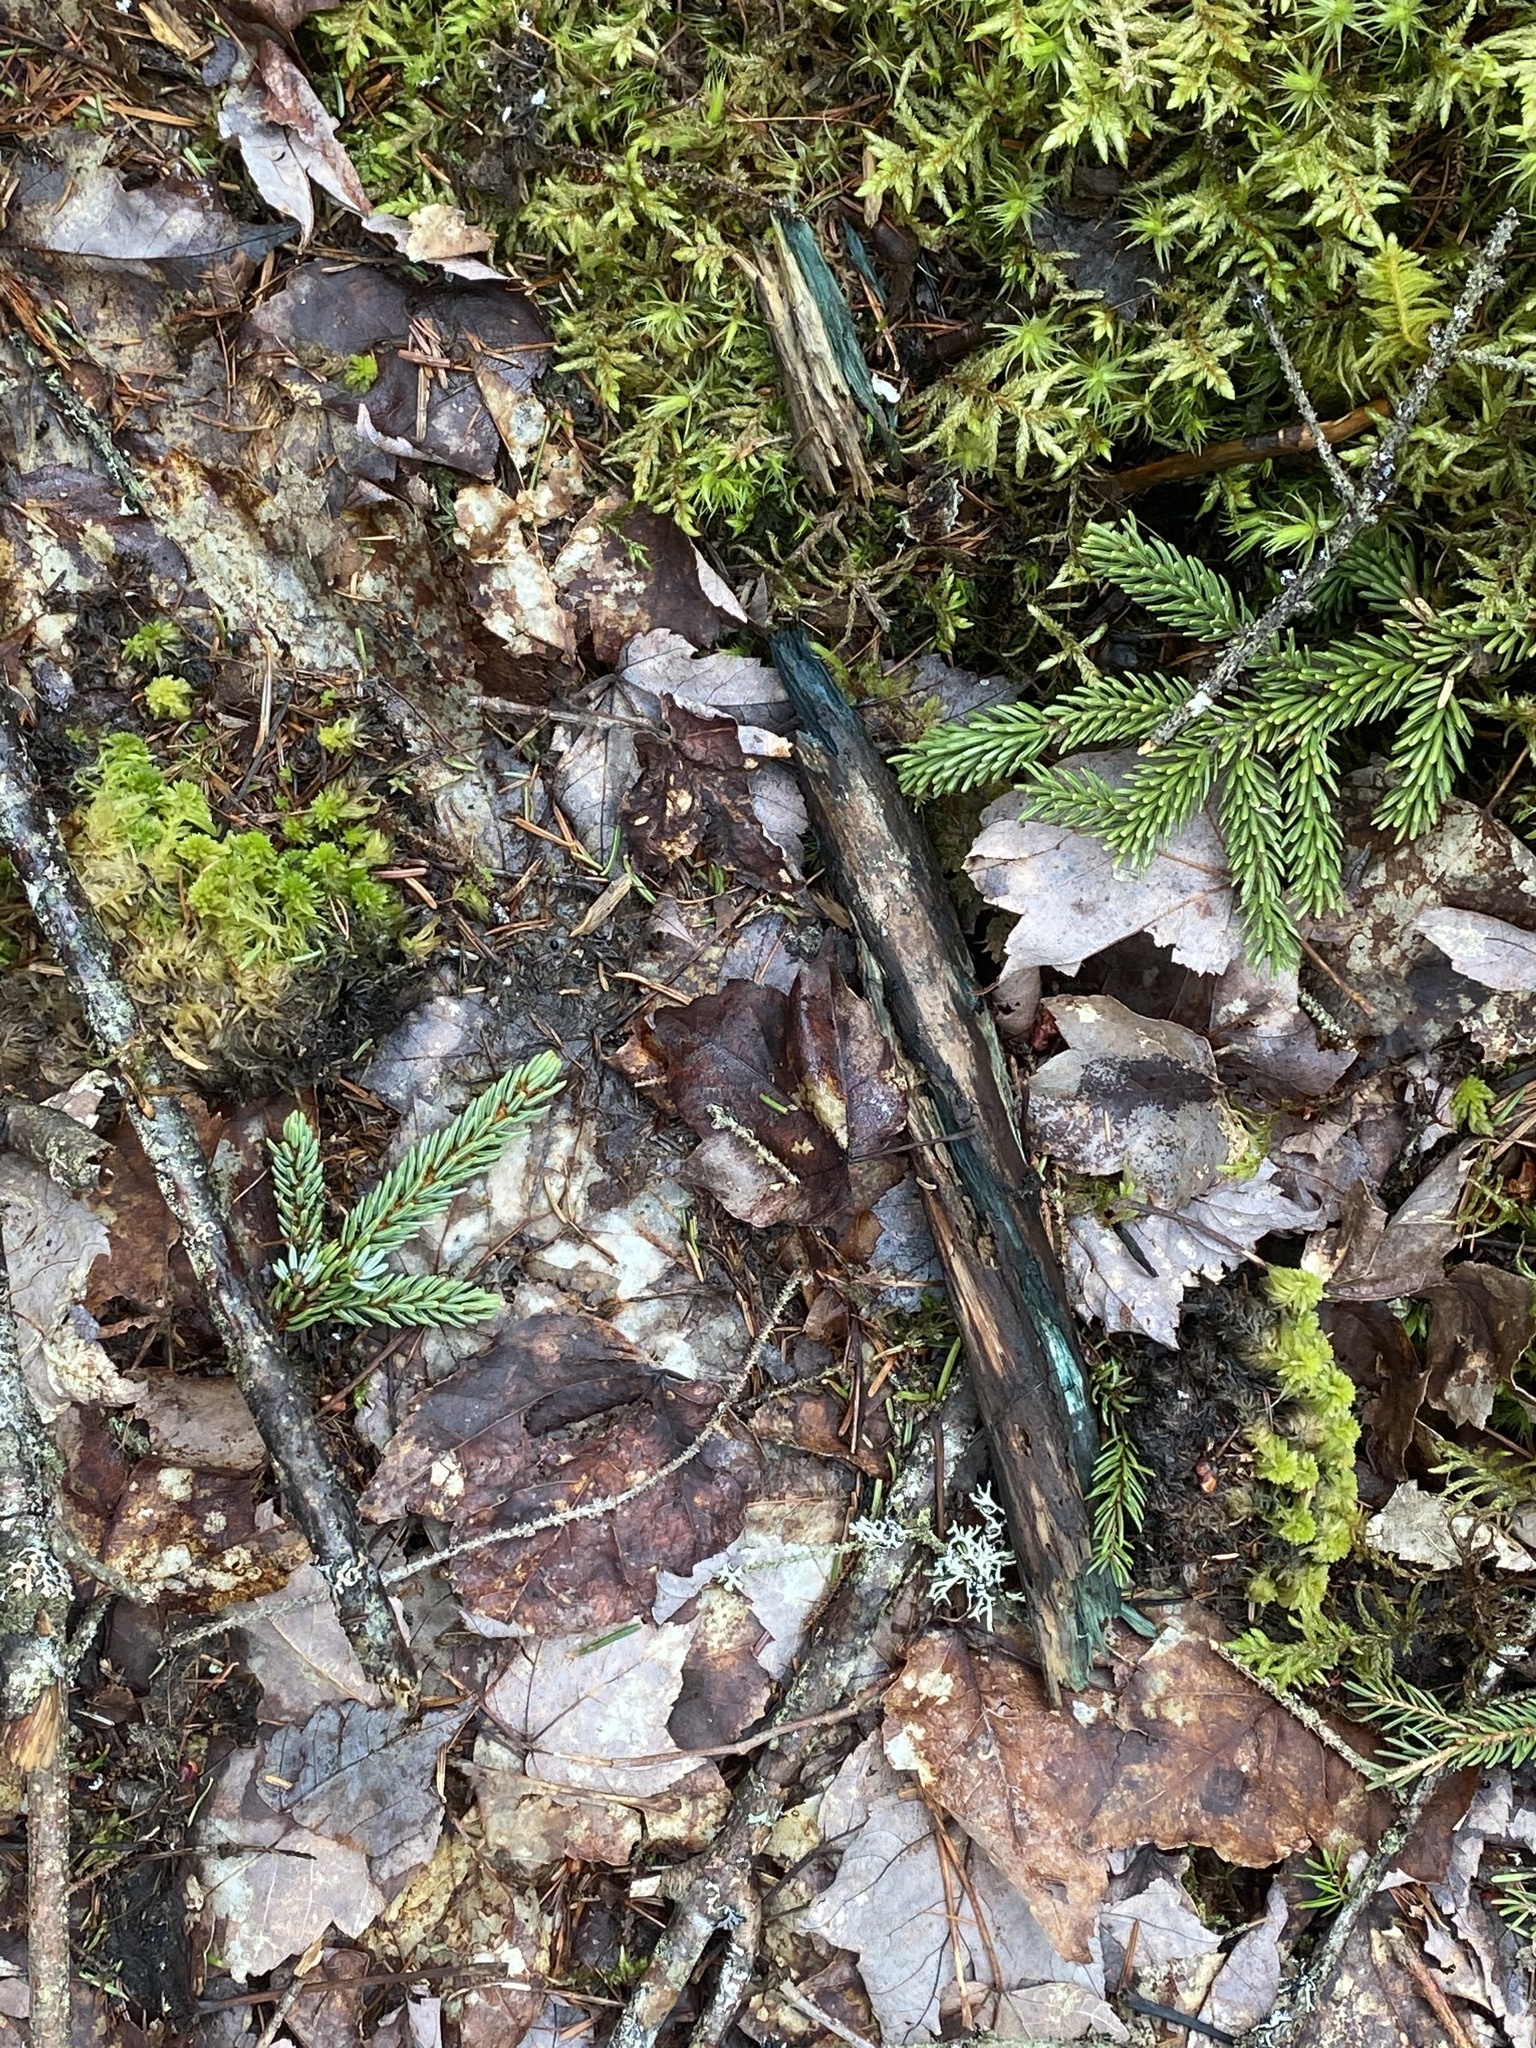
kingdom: Fungi
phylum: Ascomycota
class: Leotiomycetes
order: Helotiales
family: Chlorociboriaceae
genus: Chlorociboria
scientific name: Chlorociboria
